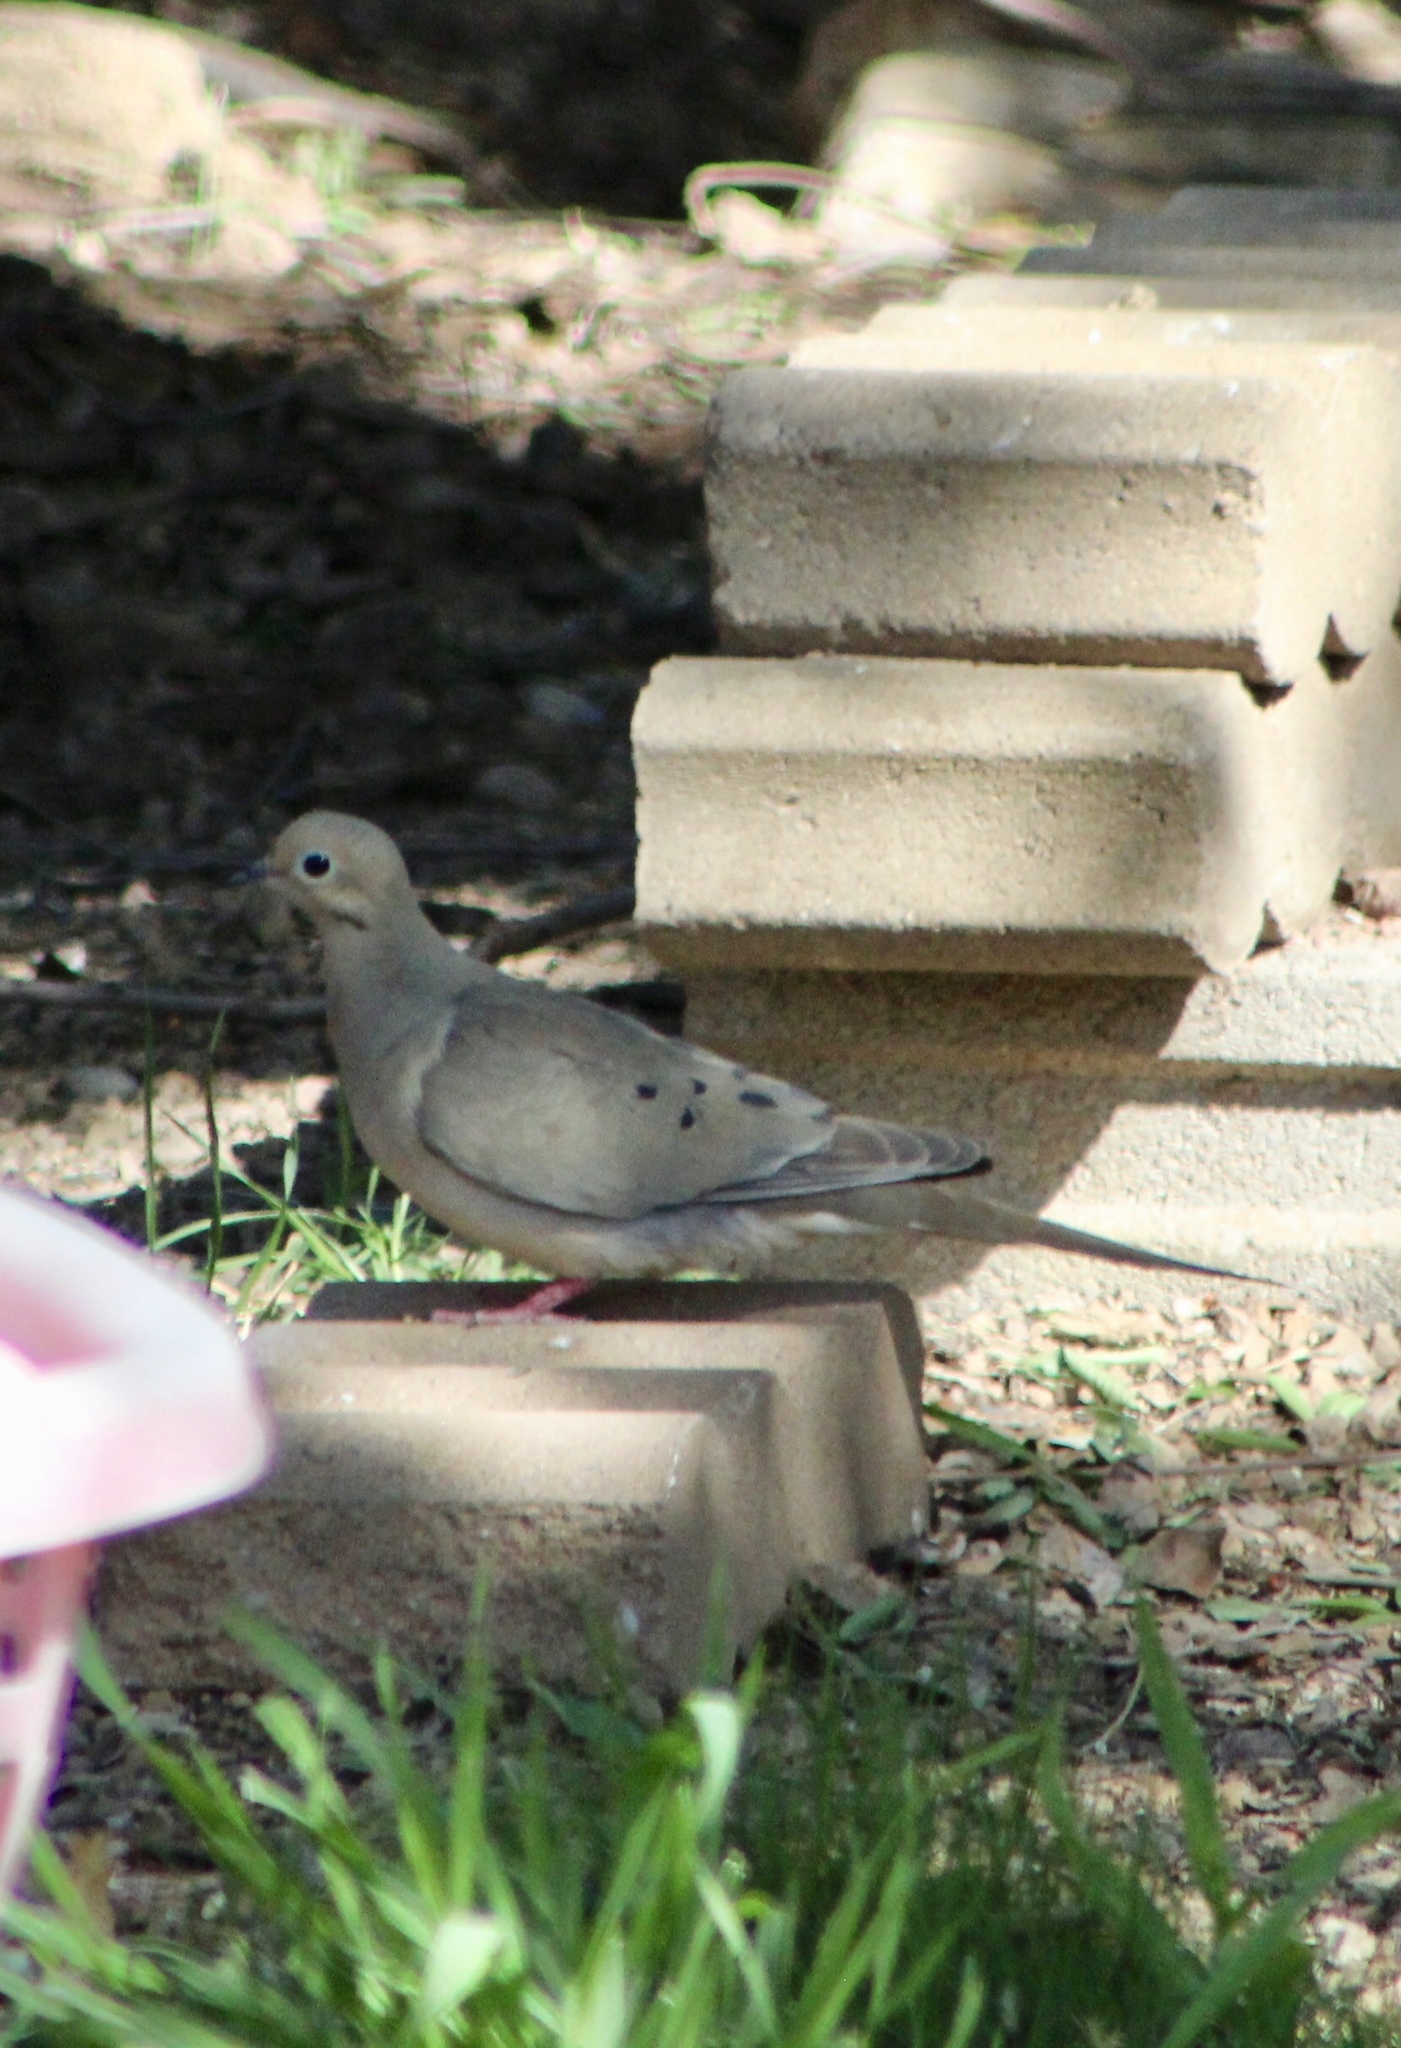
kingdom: Animalia
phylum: Chordata
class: Aves
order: Columbiformes
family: Columbidae
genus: Zenaida
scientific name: Zenaida macroura
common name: Mourning dove
